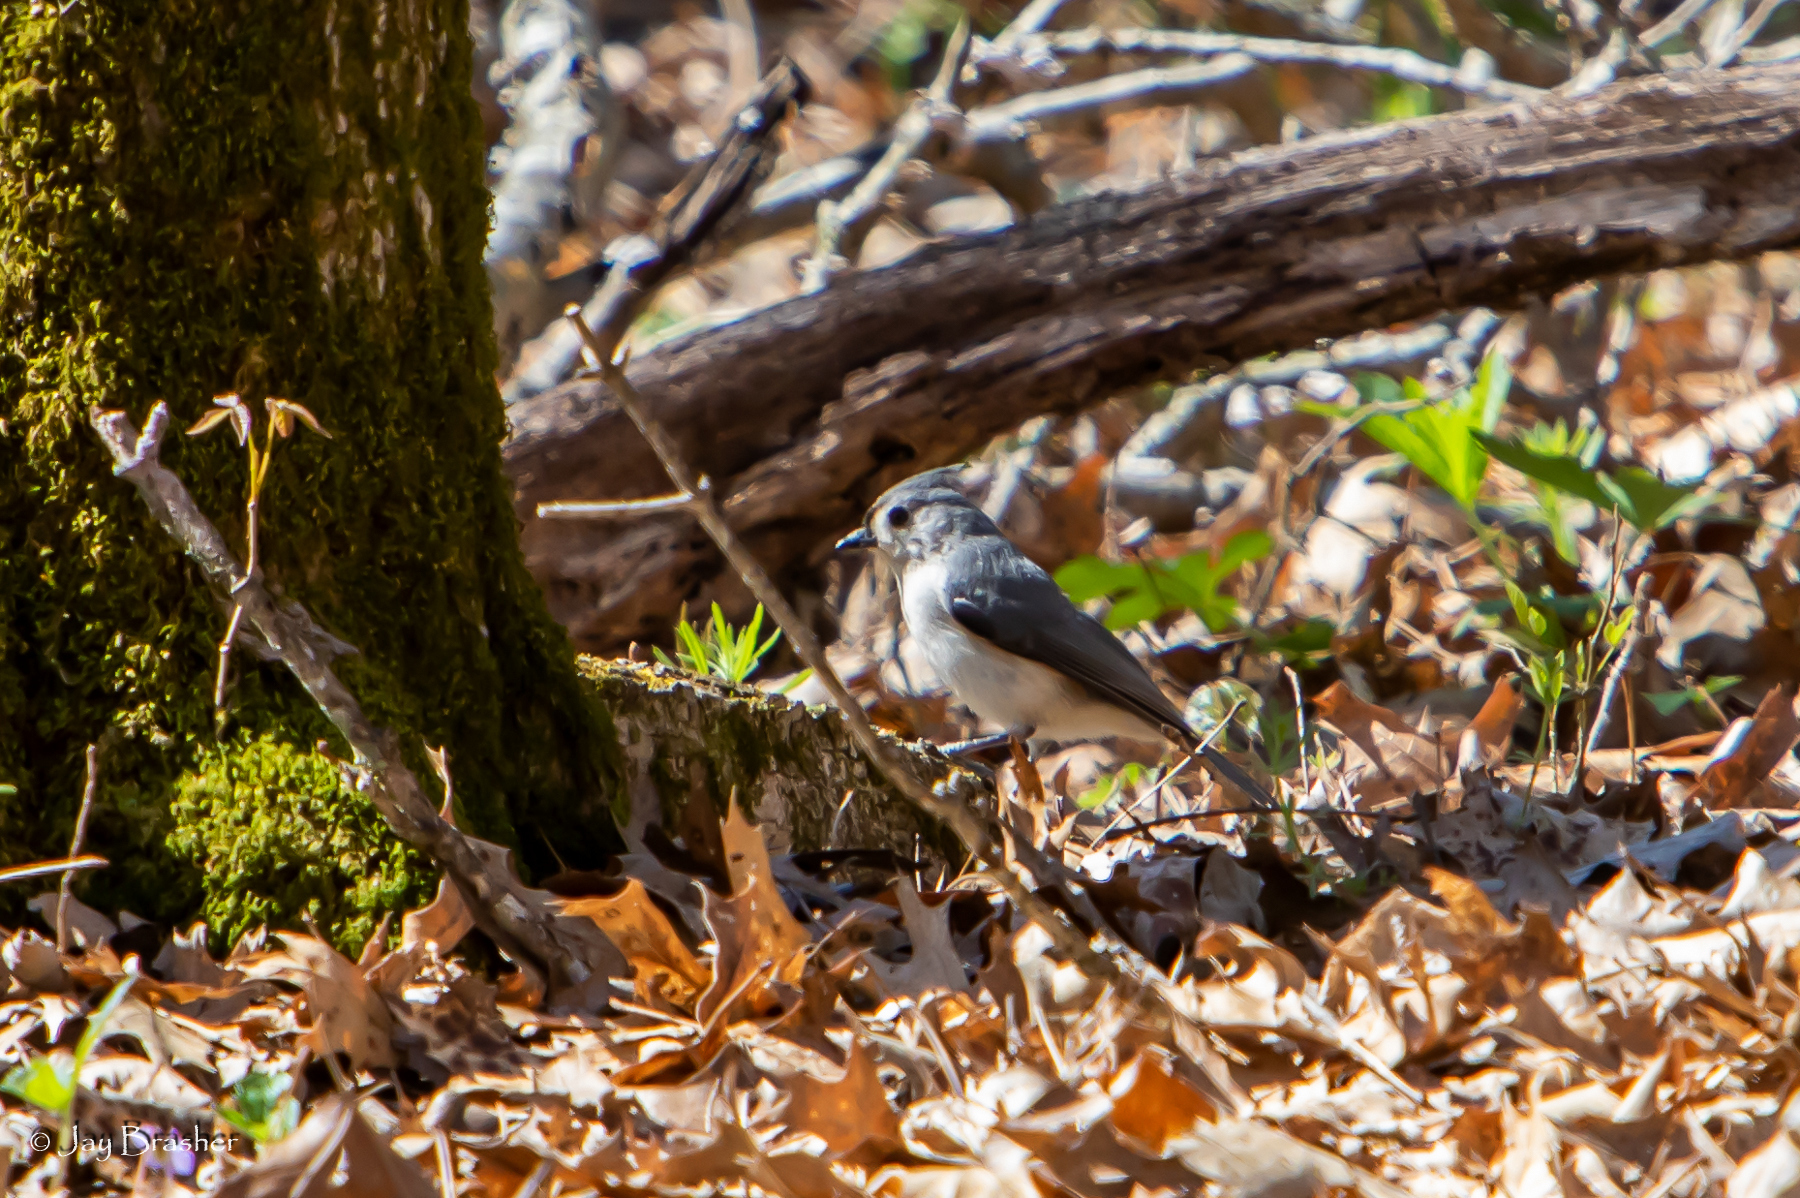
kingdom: Animalia
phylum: Chordata
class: Aves
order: Passeriformes
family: Paridae
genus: Baeolophus
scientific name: Baeolophus bicolor
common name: Tufted titmouse
